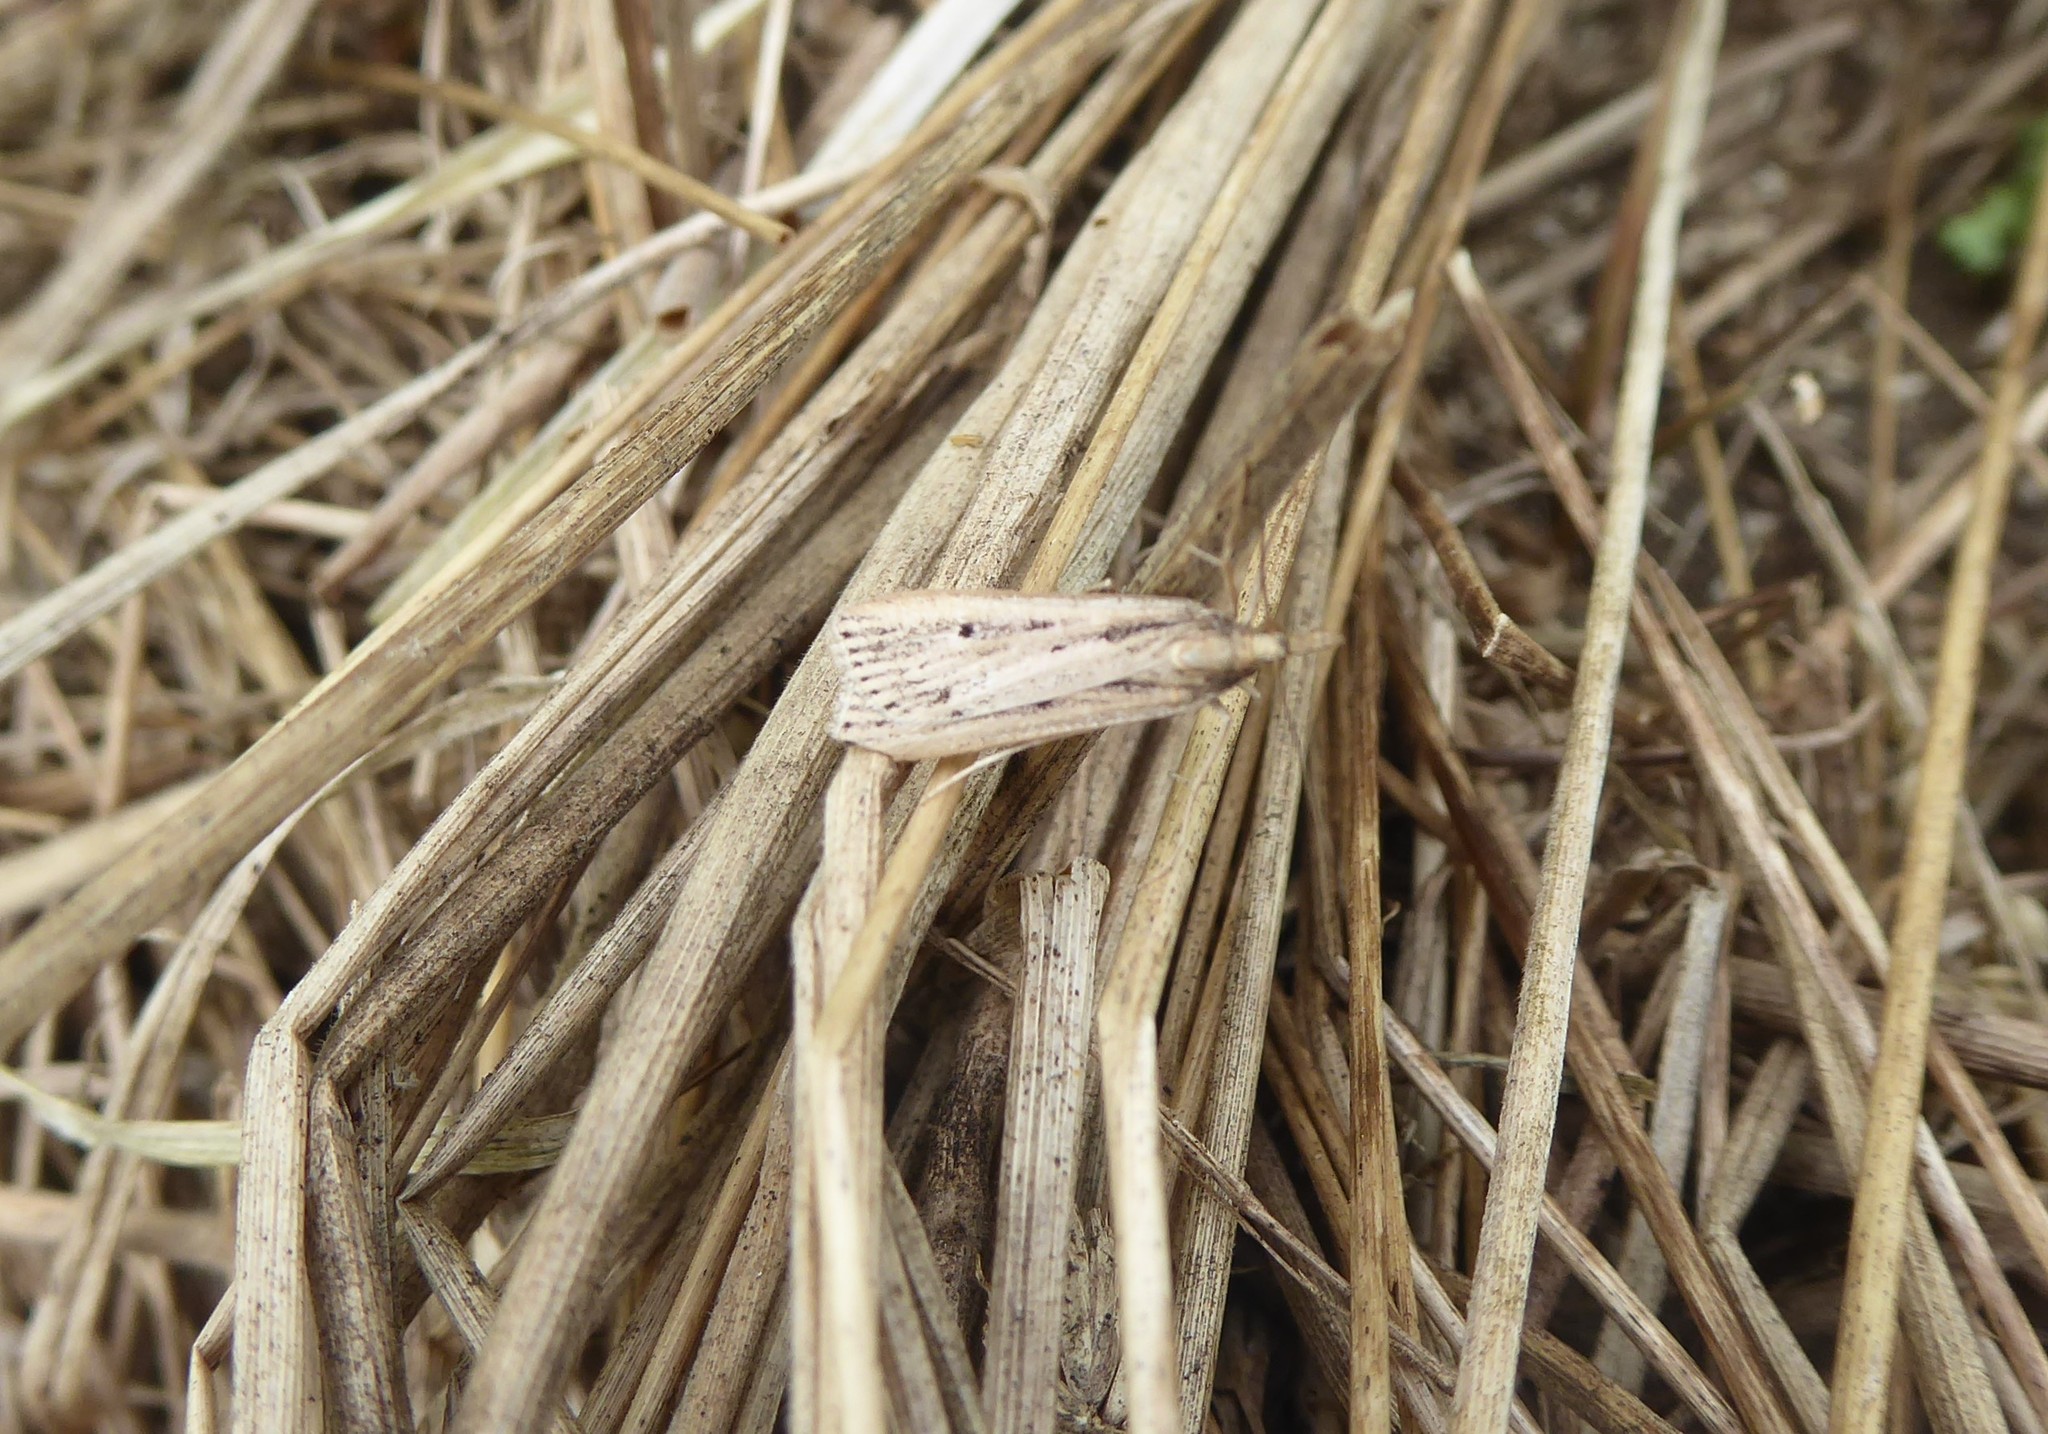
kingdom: Animalia
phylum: Arthropoda
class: Insecta
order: Lepidoptera
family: Crambidae
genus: Eudonia
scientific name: Eudonia sabulosella
